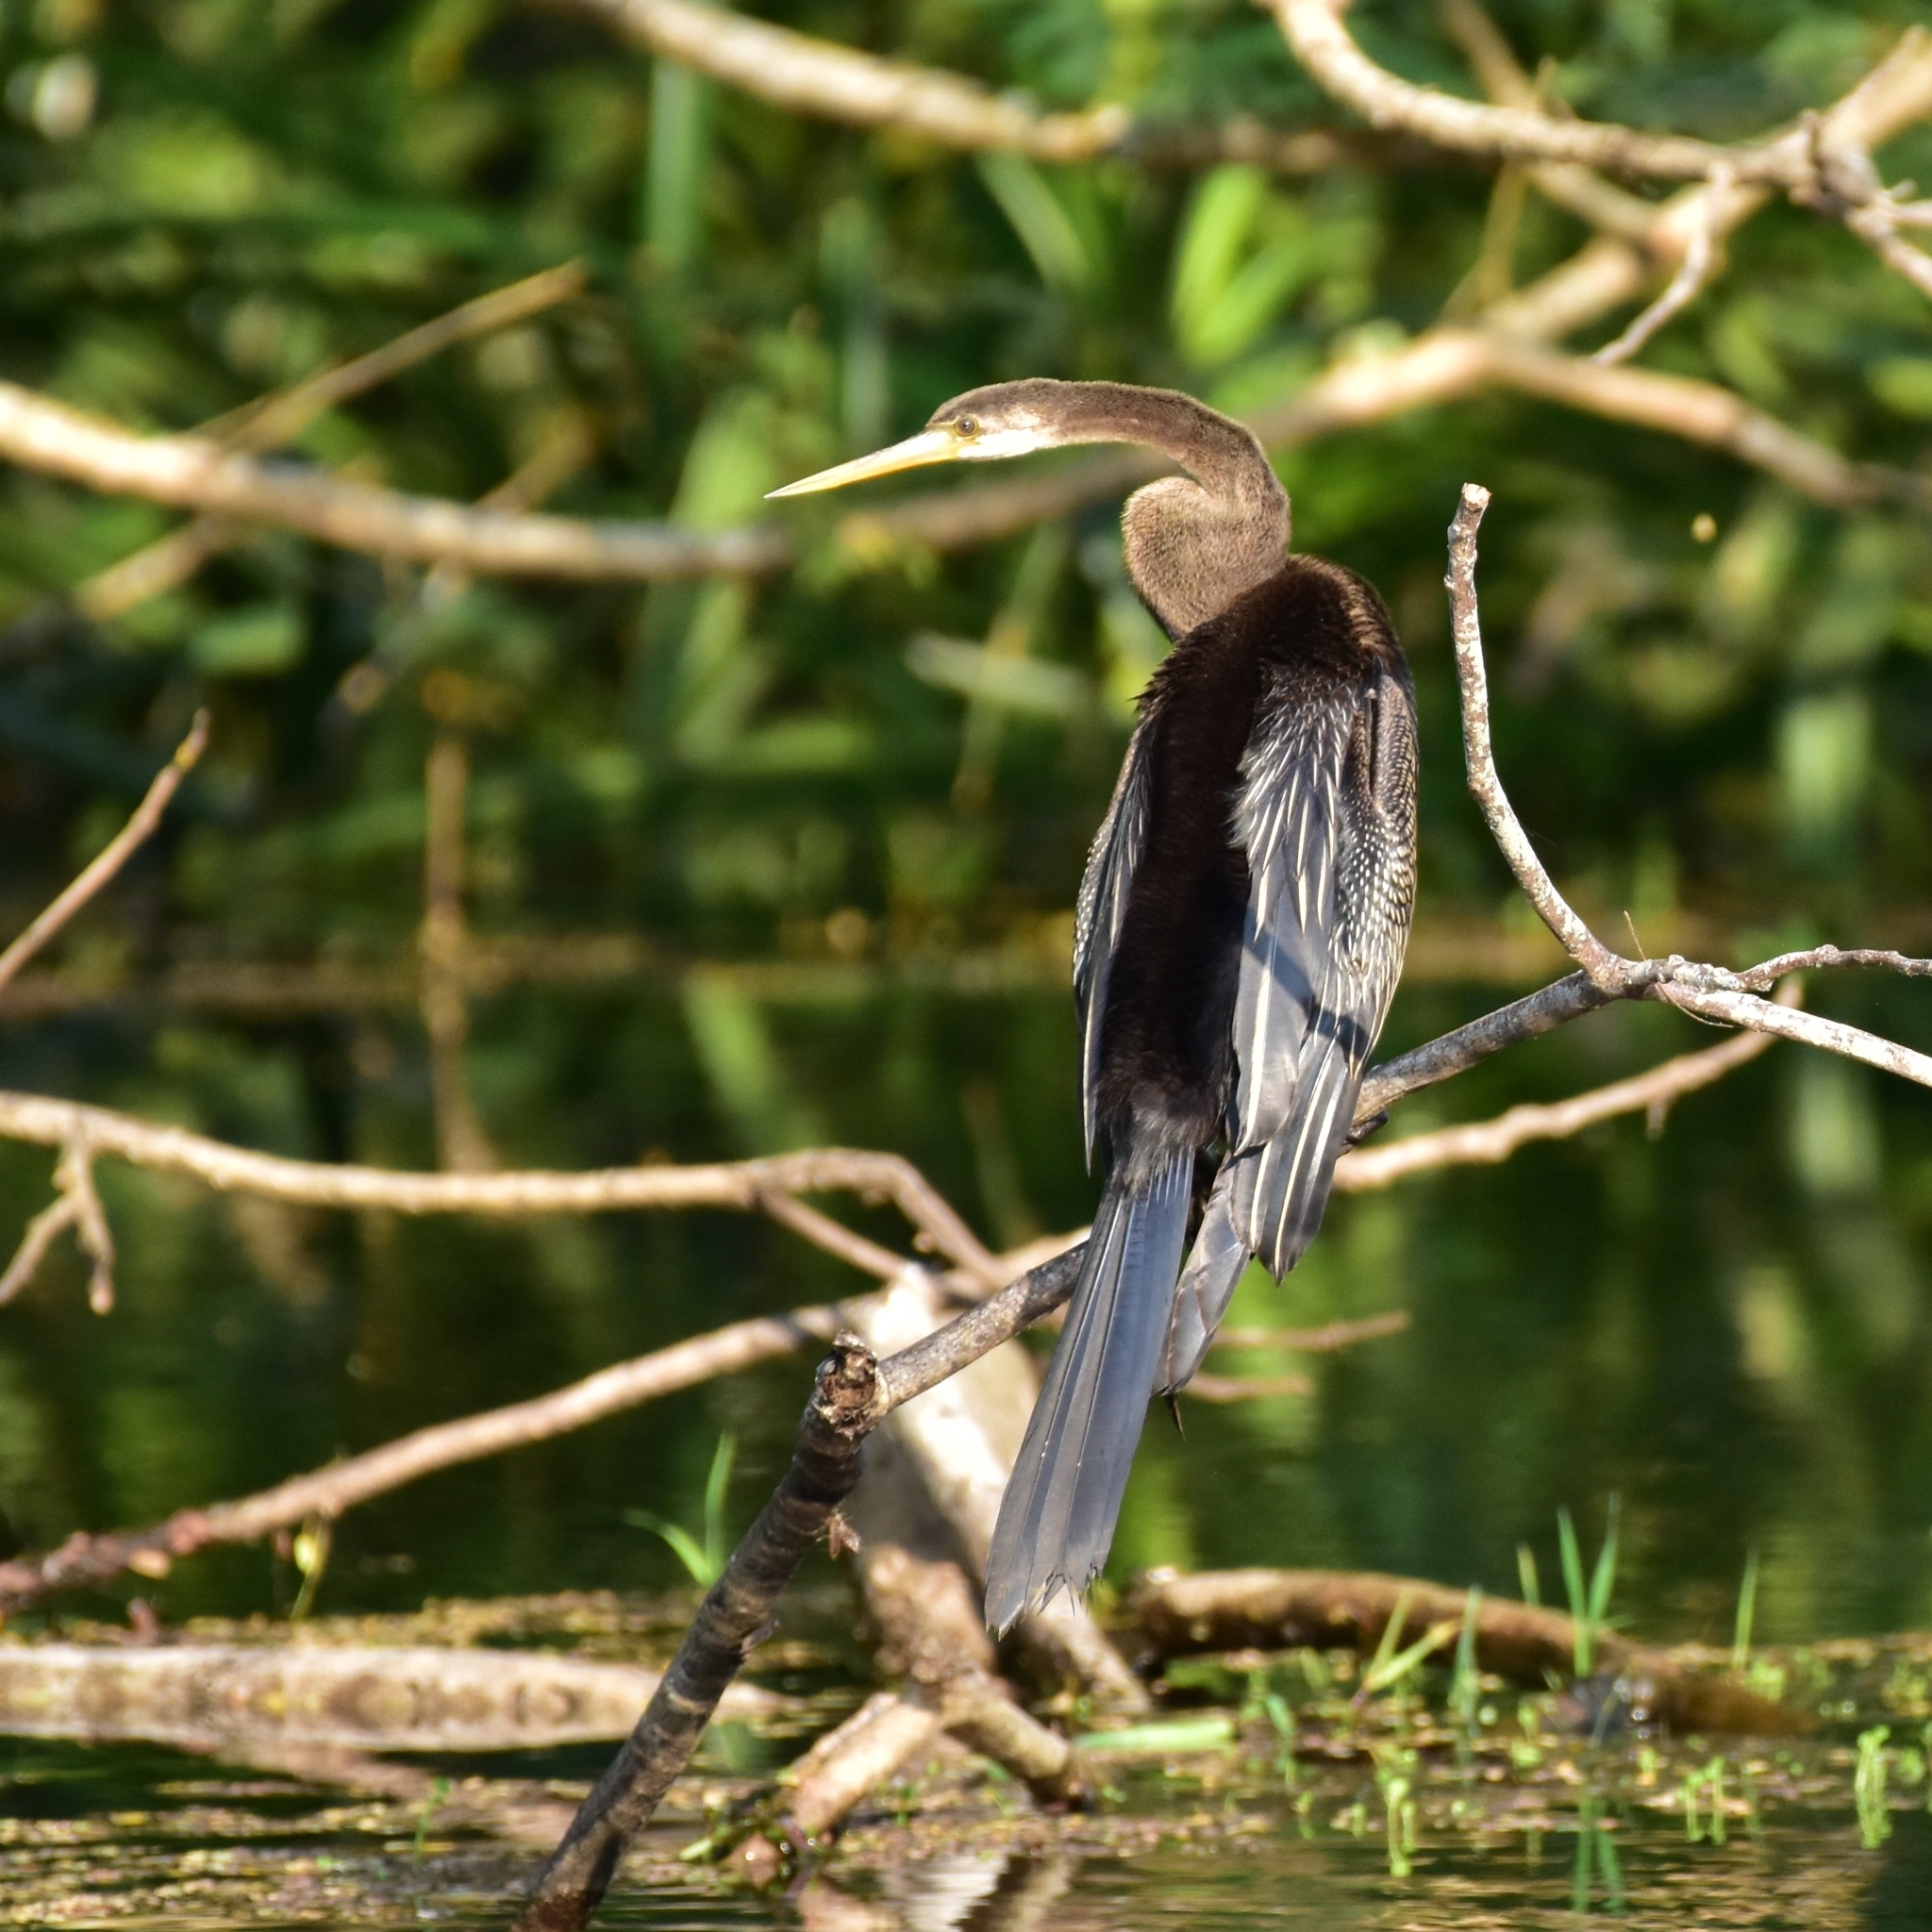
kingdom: Animalia
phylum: Chordata
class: Aves
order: Suliformes
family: Anhingidae
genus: Anhinga
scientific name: Anhinga melanogaster
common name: Oriental darter
